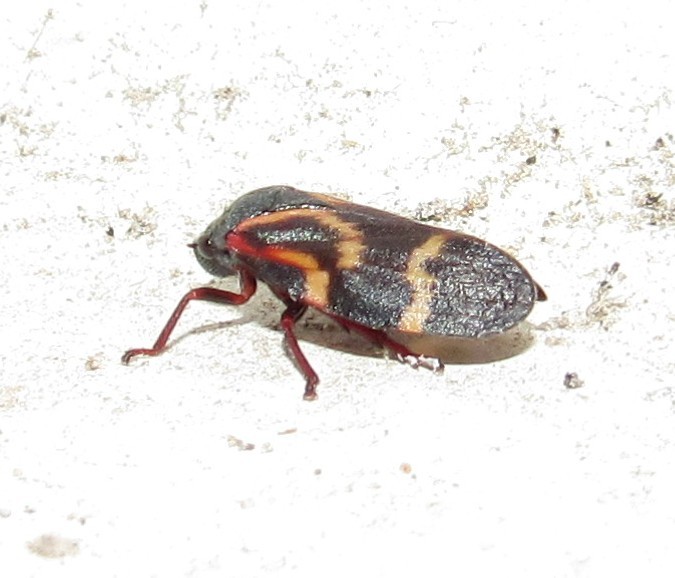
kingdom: Animalia
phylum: Arthropoda
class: Insecta
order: Hemiptera
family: Cercopidae
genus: Deois
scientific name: Deois flexuosa
